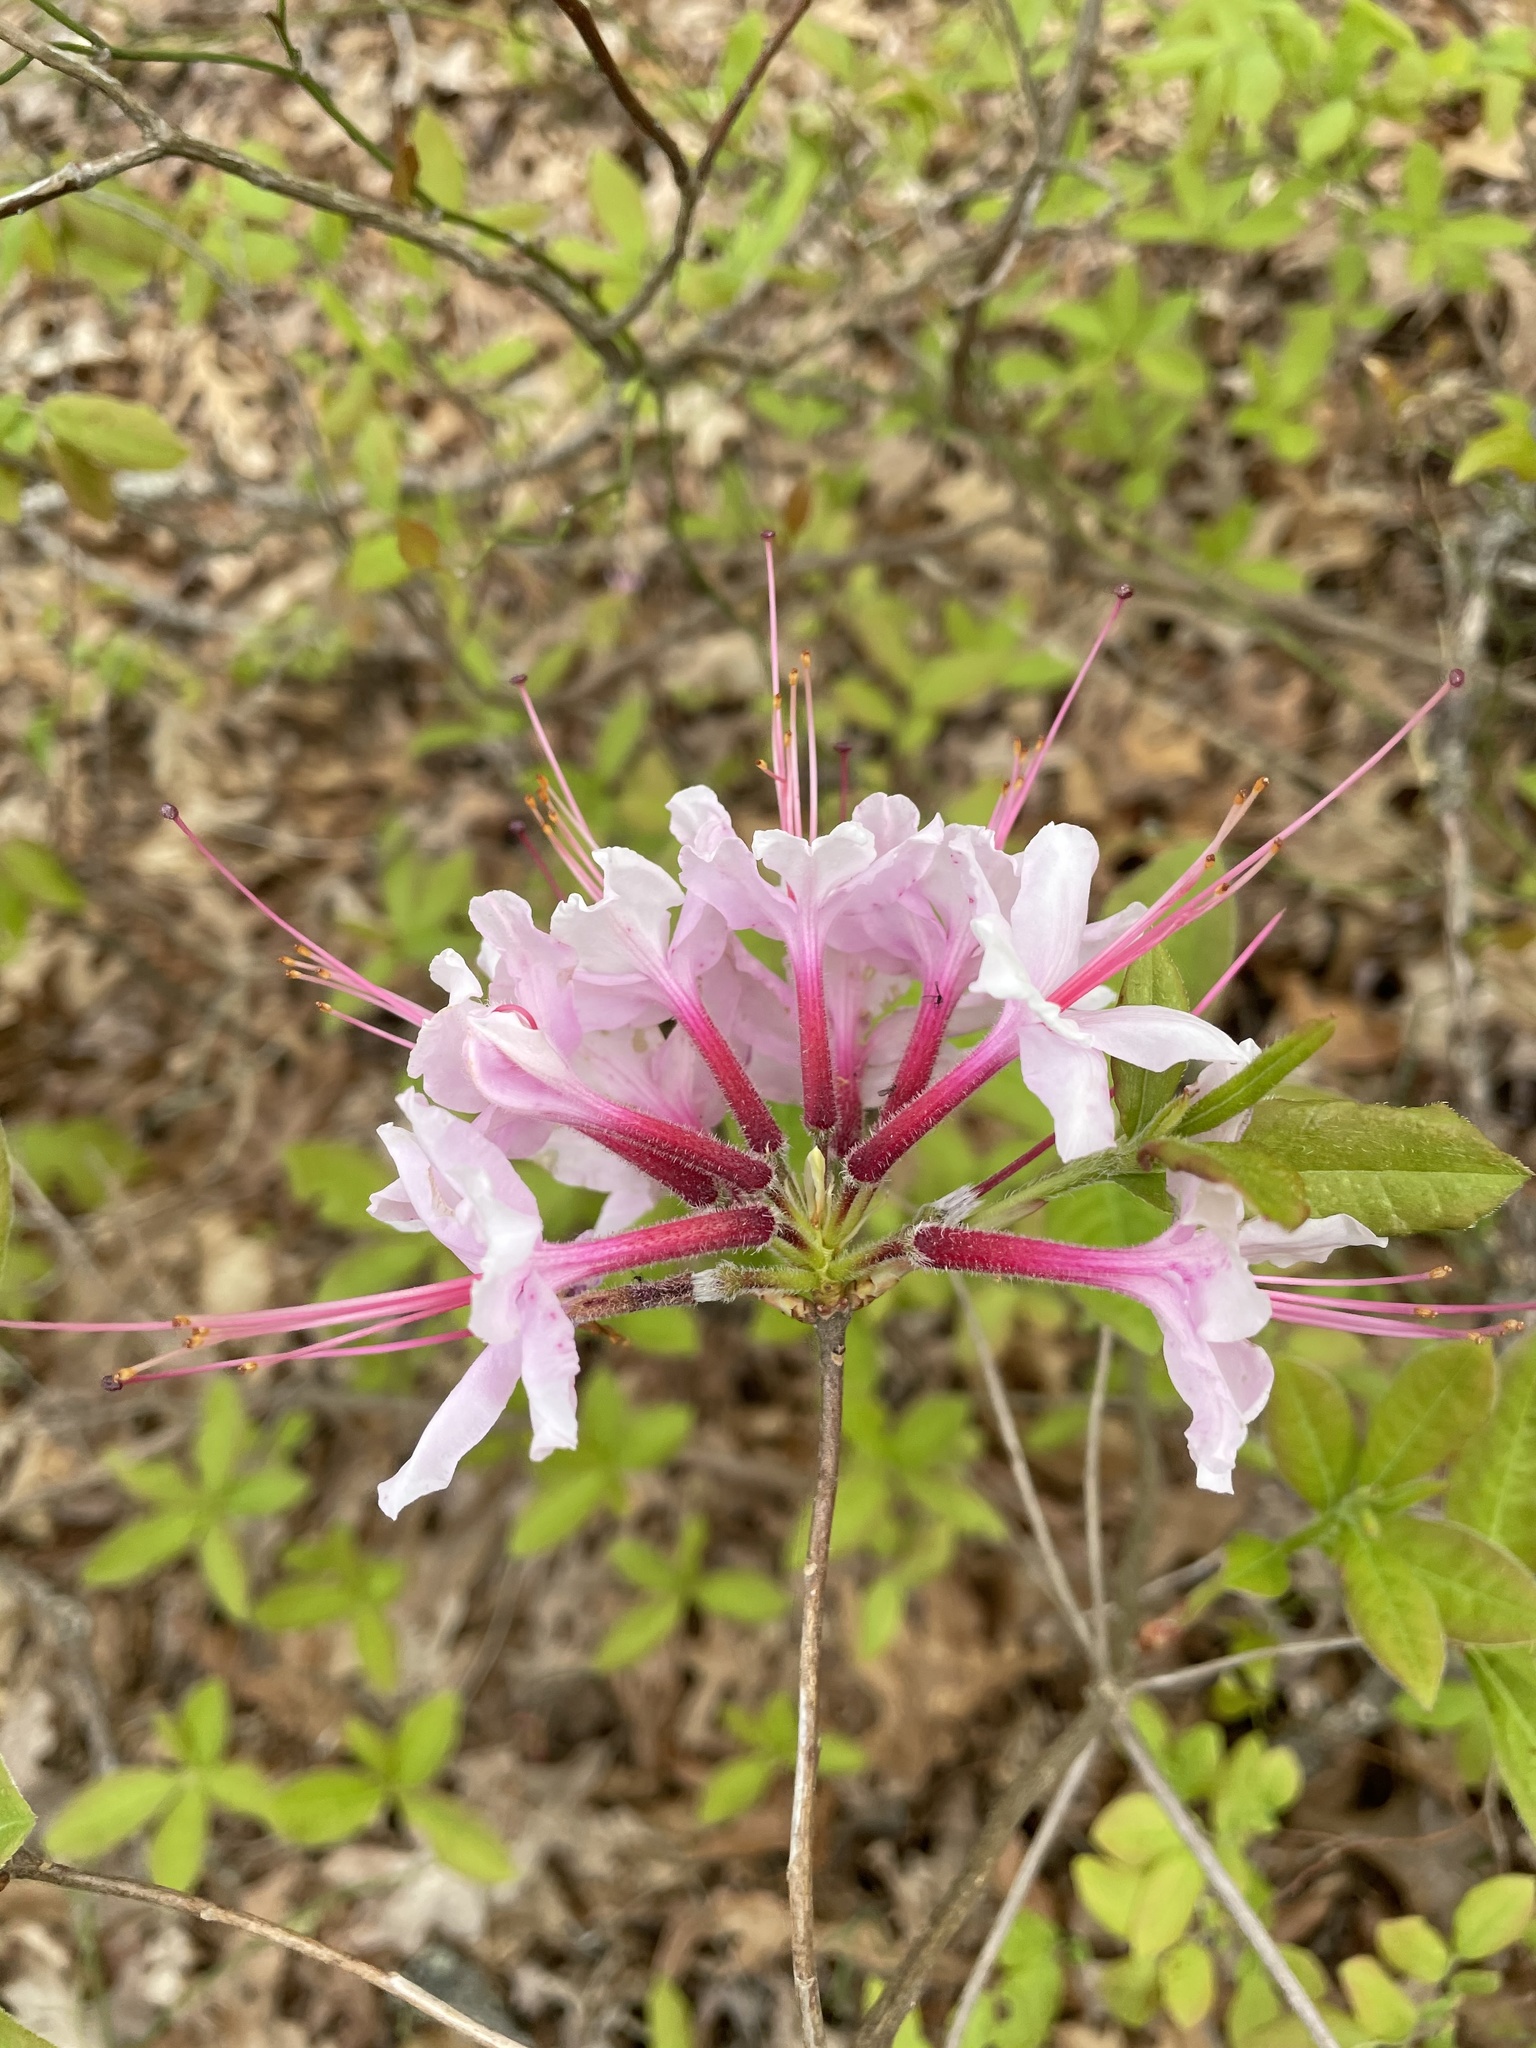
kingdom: Plantae
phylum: Tracheophyta
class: Magnoliopsida
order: Ericales
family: Ericaceae
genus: Rhododendron
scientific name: Rhododendron periclymenoides
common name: Election-pink
